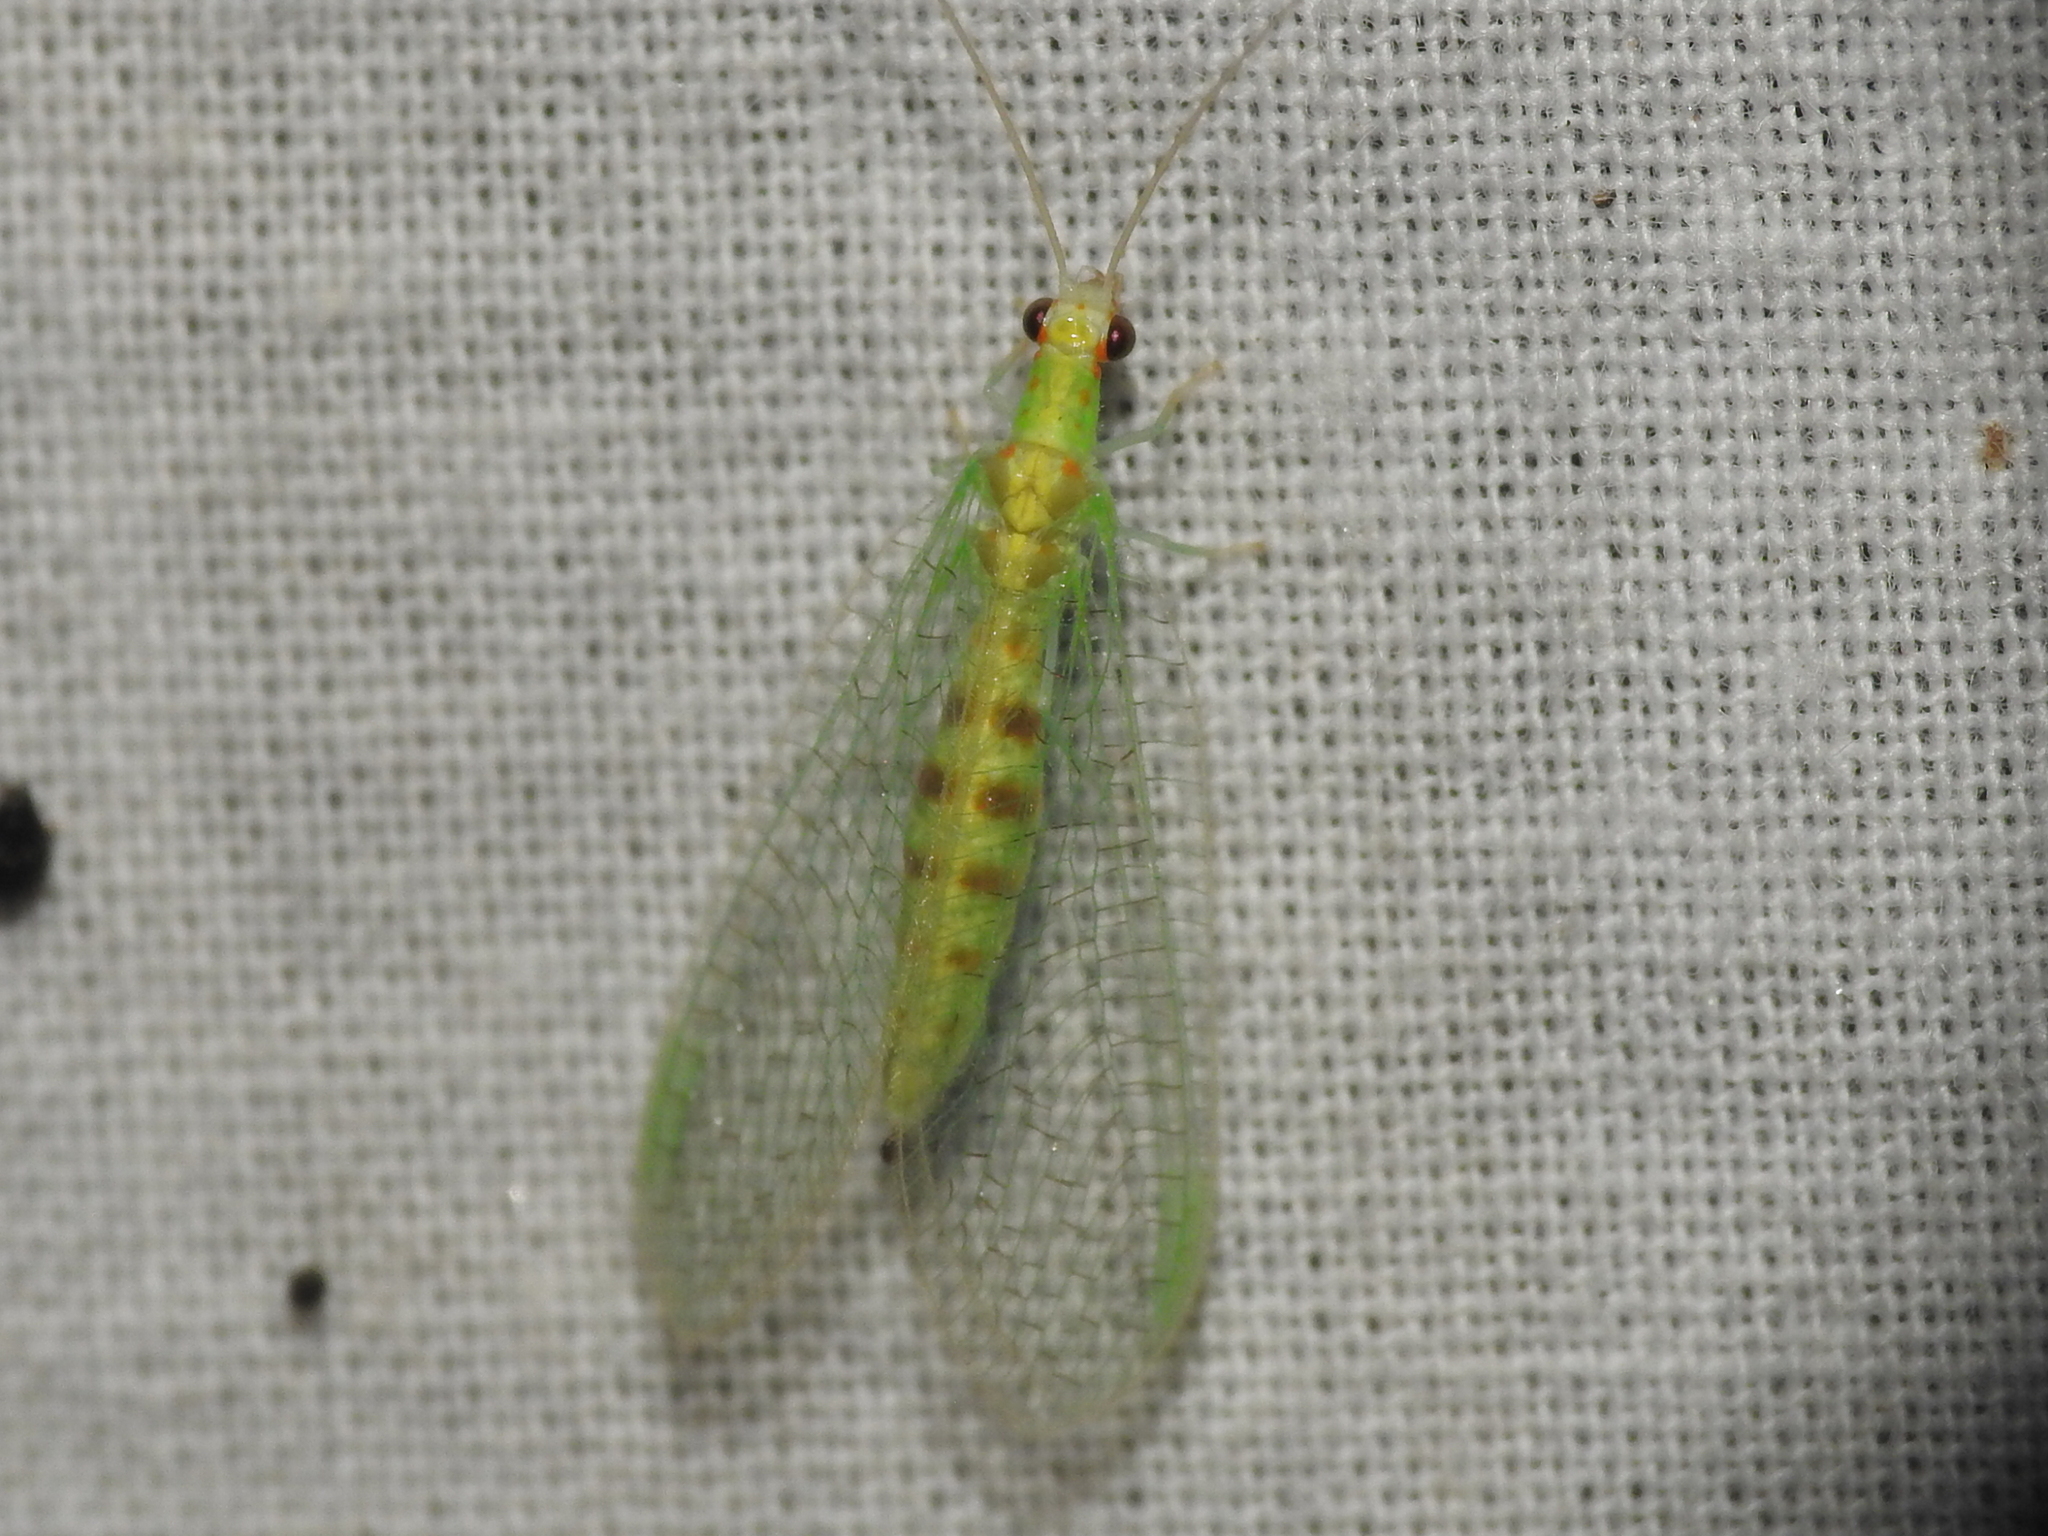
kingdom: Animalia
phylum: Arthropoda
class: Insecta
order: Neuroptera
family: Chrysopidae
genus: Chrysopa
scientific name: Chrysopa quadripunctata
